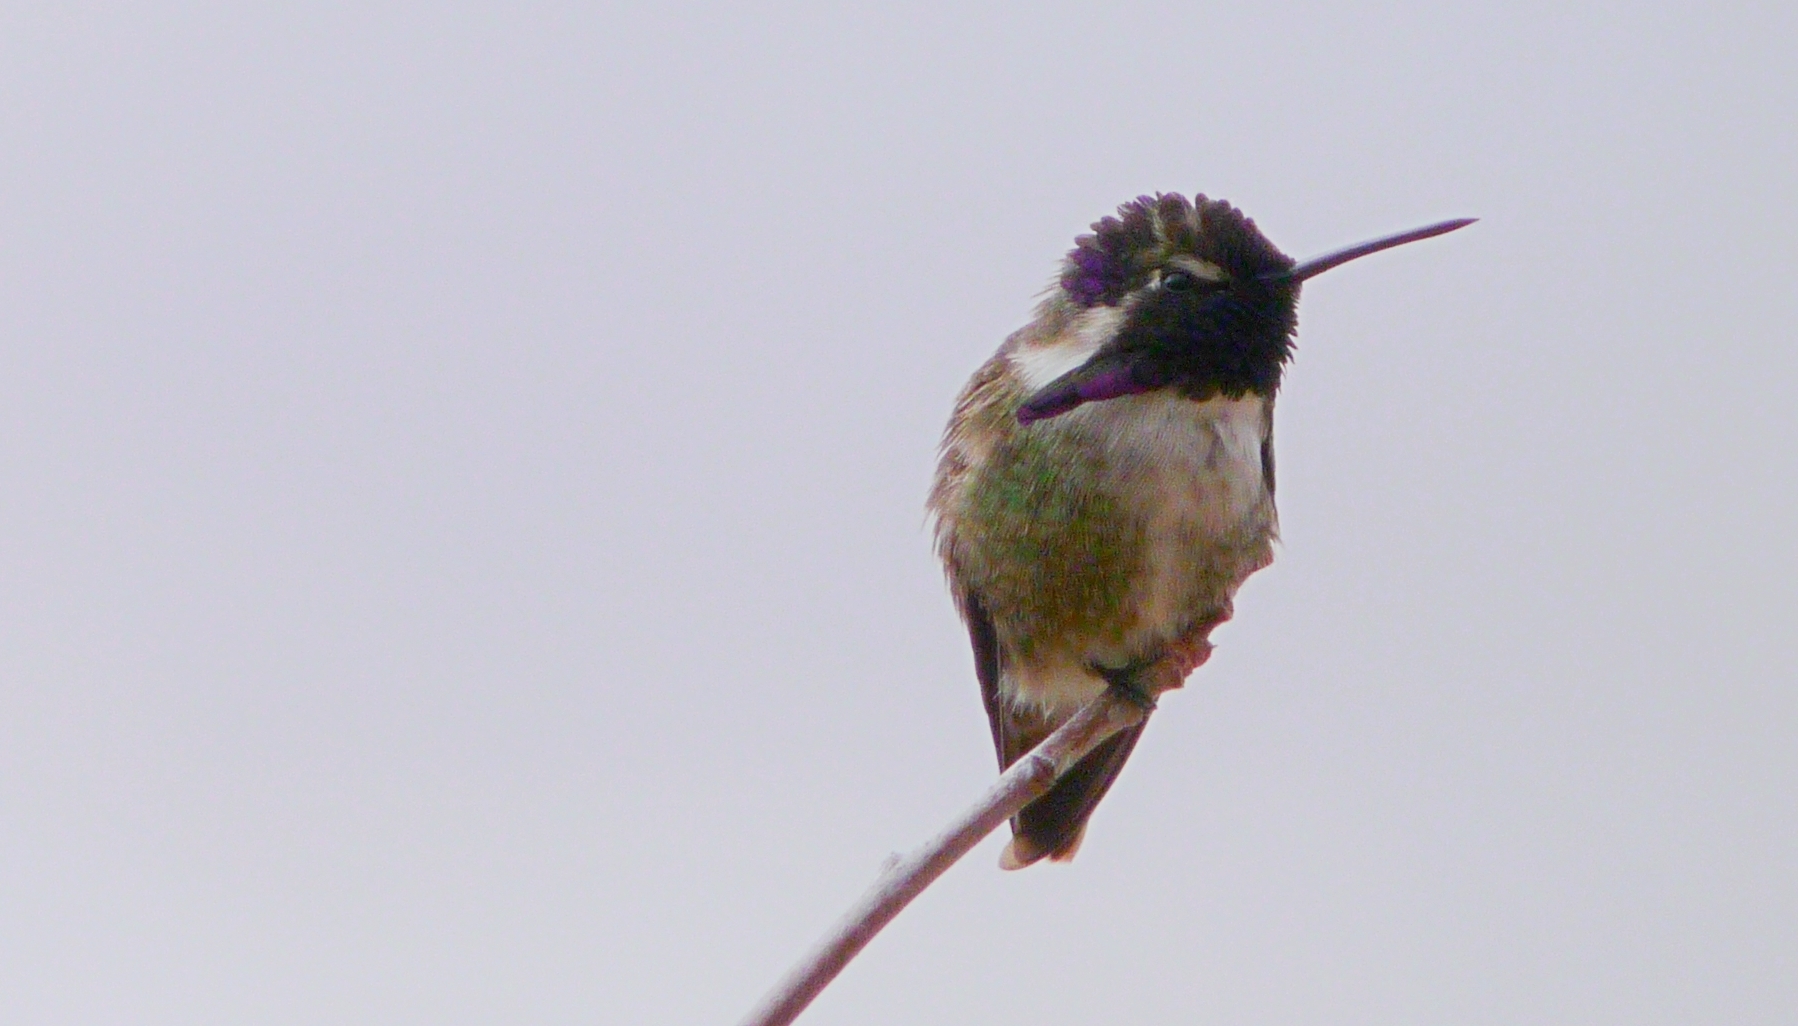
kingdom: Animalia
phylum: Chordata
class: Aves
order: Apodiformes
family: Trochilidae
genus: Calypte
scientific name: Calypte costae
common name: Costa's hummingbird
